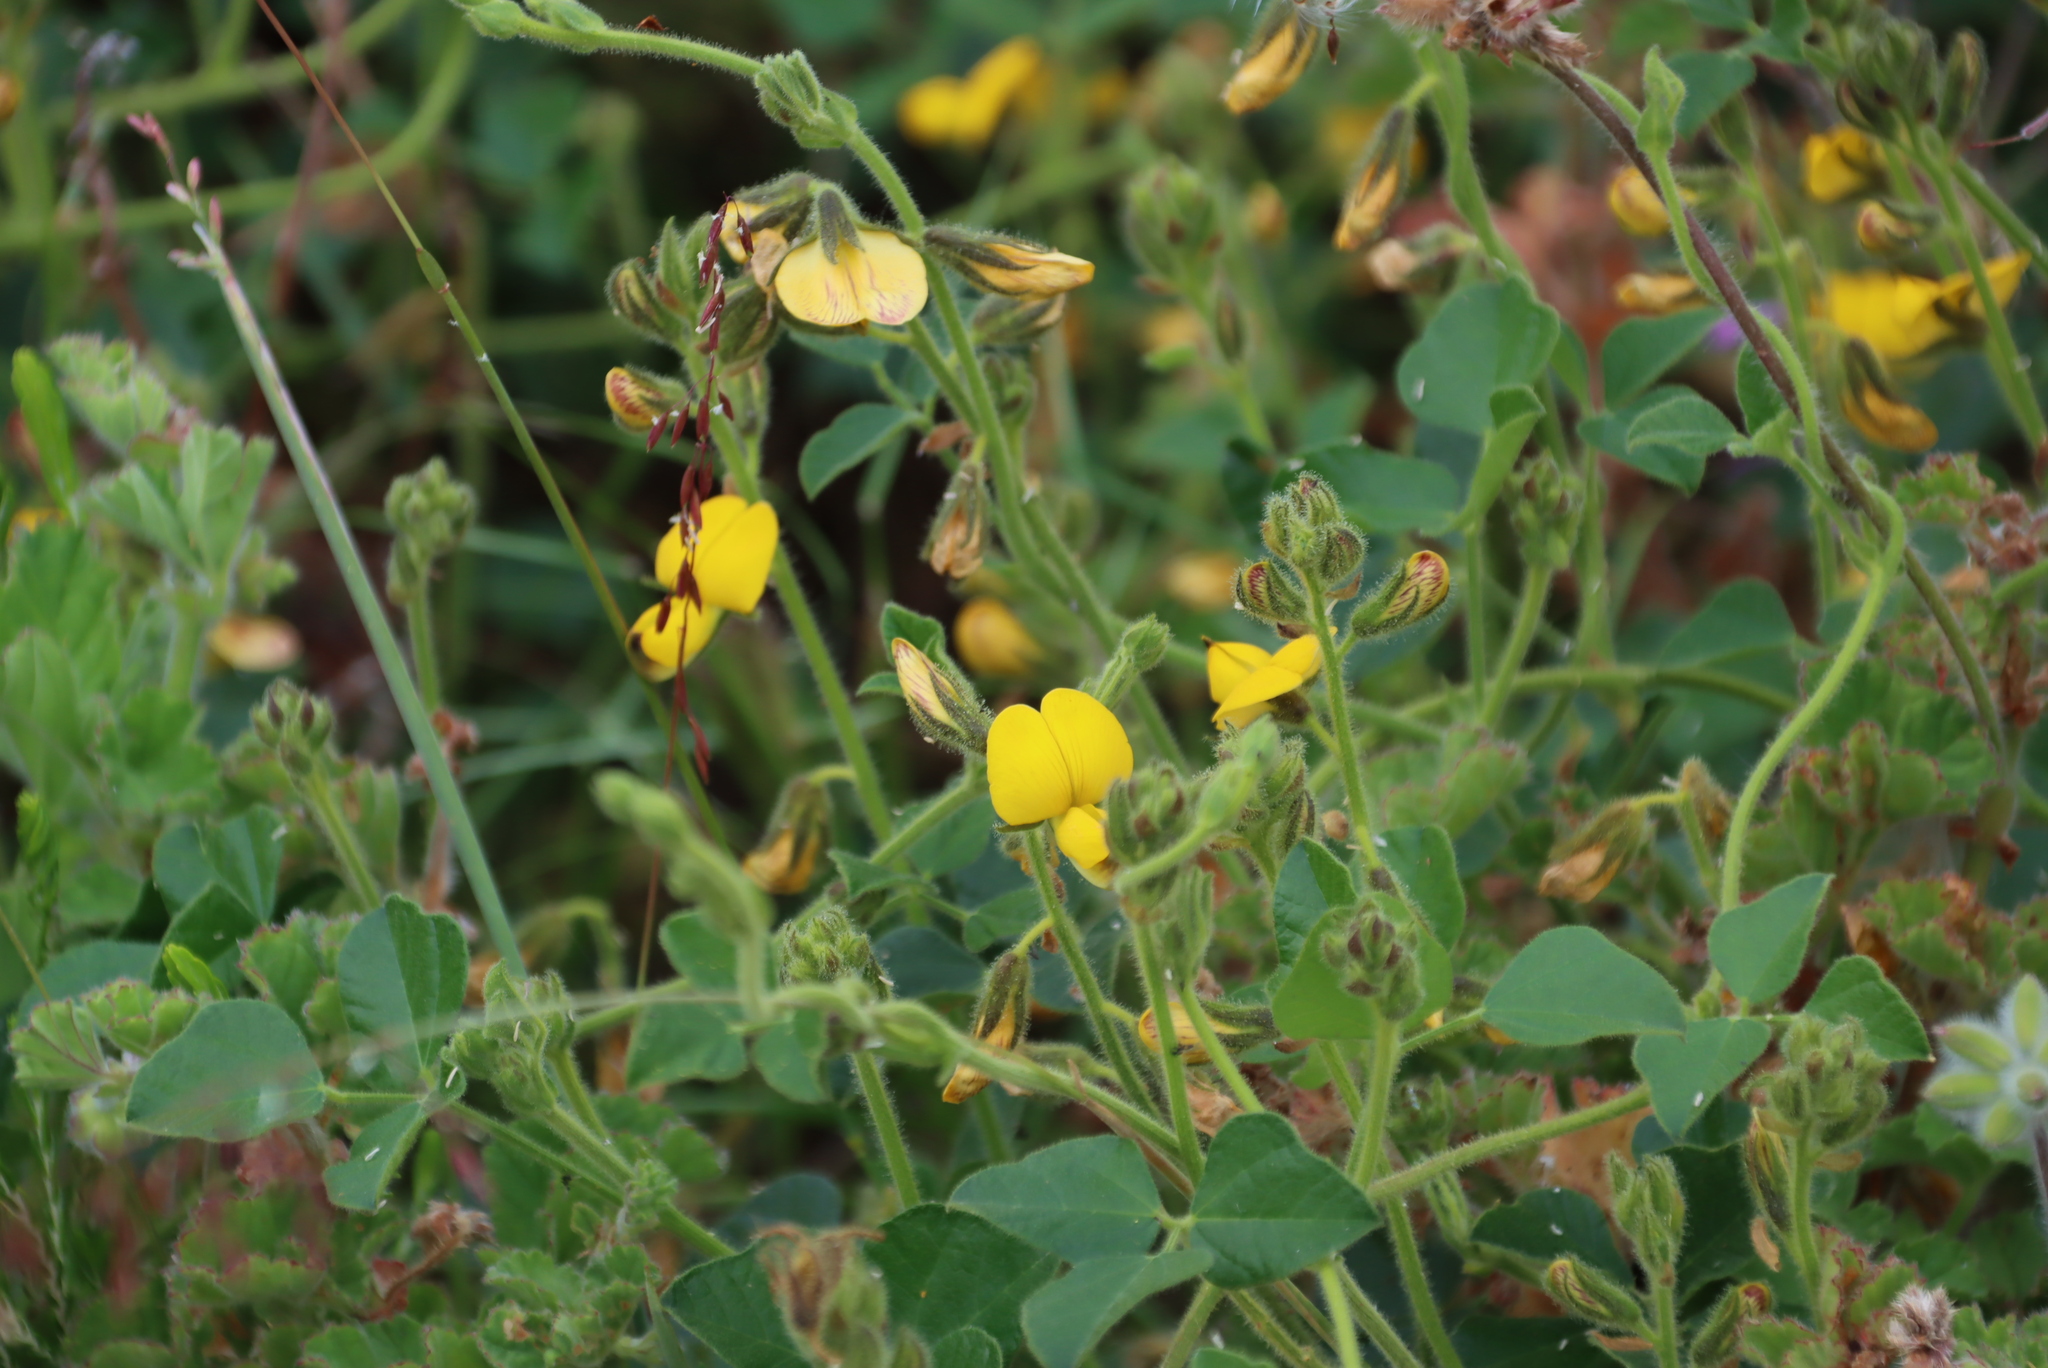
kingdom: Plantae
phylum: Tracheophyta
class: Magnoliopsida
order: Fabales
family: Fabaceae
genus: Bolusafra
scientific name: Bolusafra bituminosa
